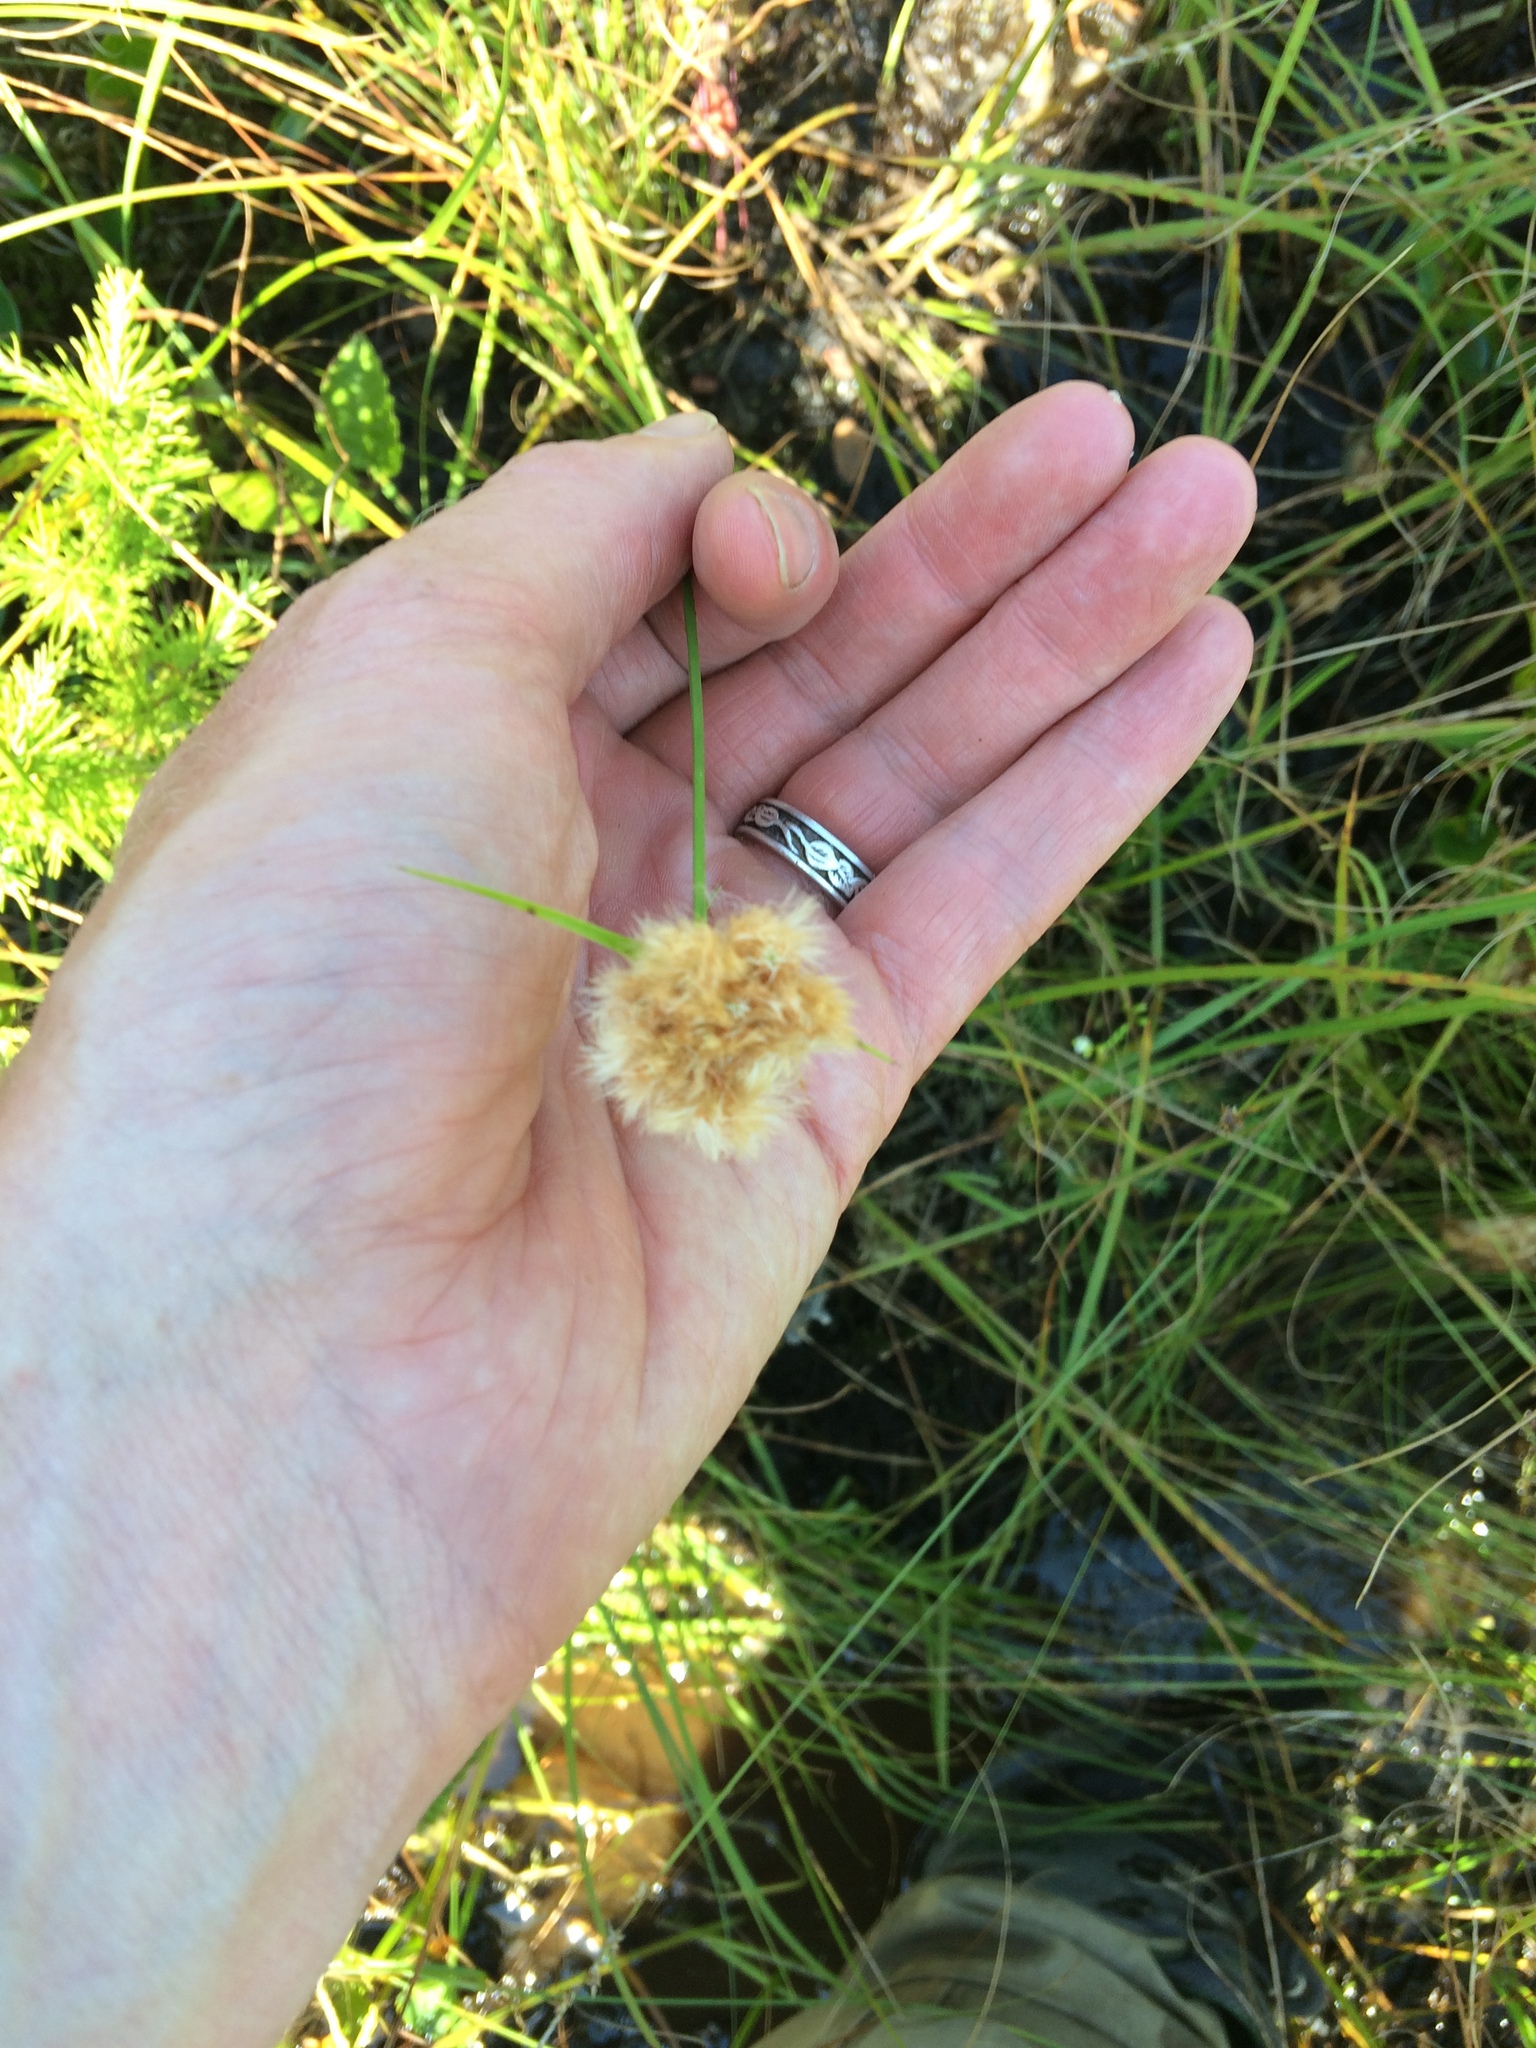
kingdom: Plantae
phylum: Tracheophyta
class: Liliopsida
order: Poales
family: Cyperaceae
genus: Eriophorum
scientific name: Eriophorum virginicum
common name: Tawny cottongrass
